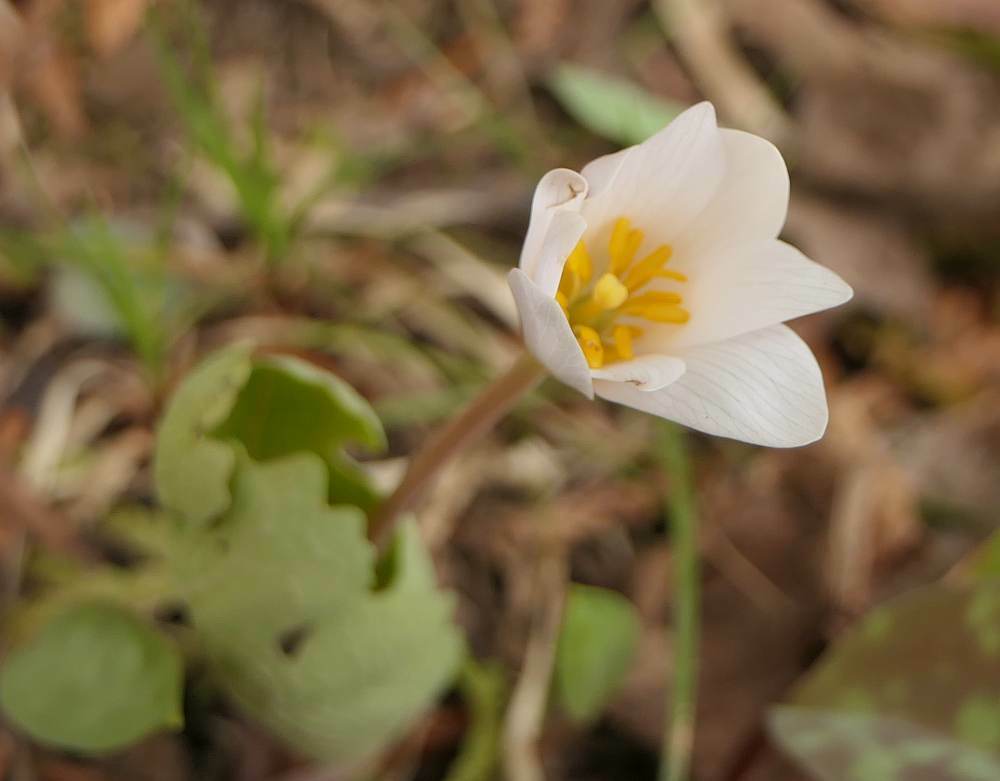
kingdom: Plantae
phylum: Tracheophyta
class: Magnoliopsida
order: Ranunculales
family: Papaveraceae
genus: Sanguinaria
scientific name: Sanguinaria canadensis
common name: Bloodroot
